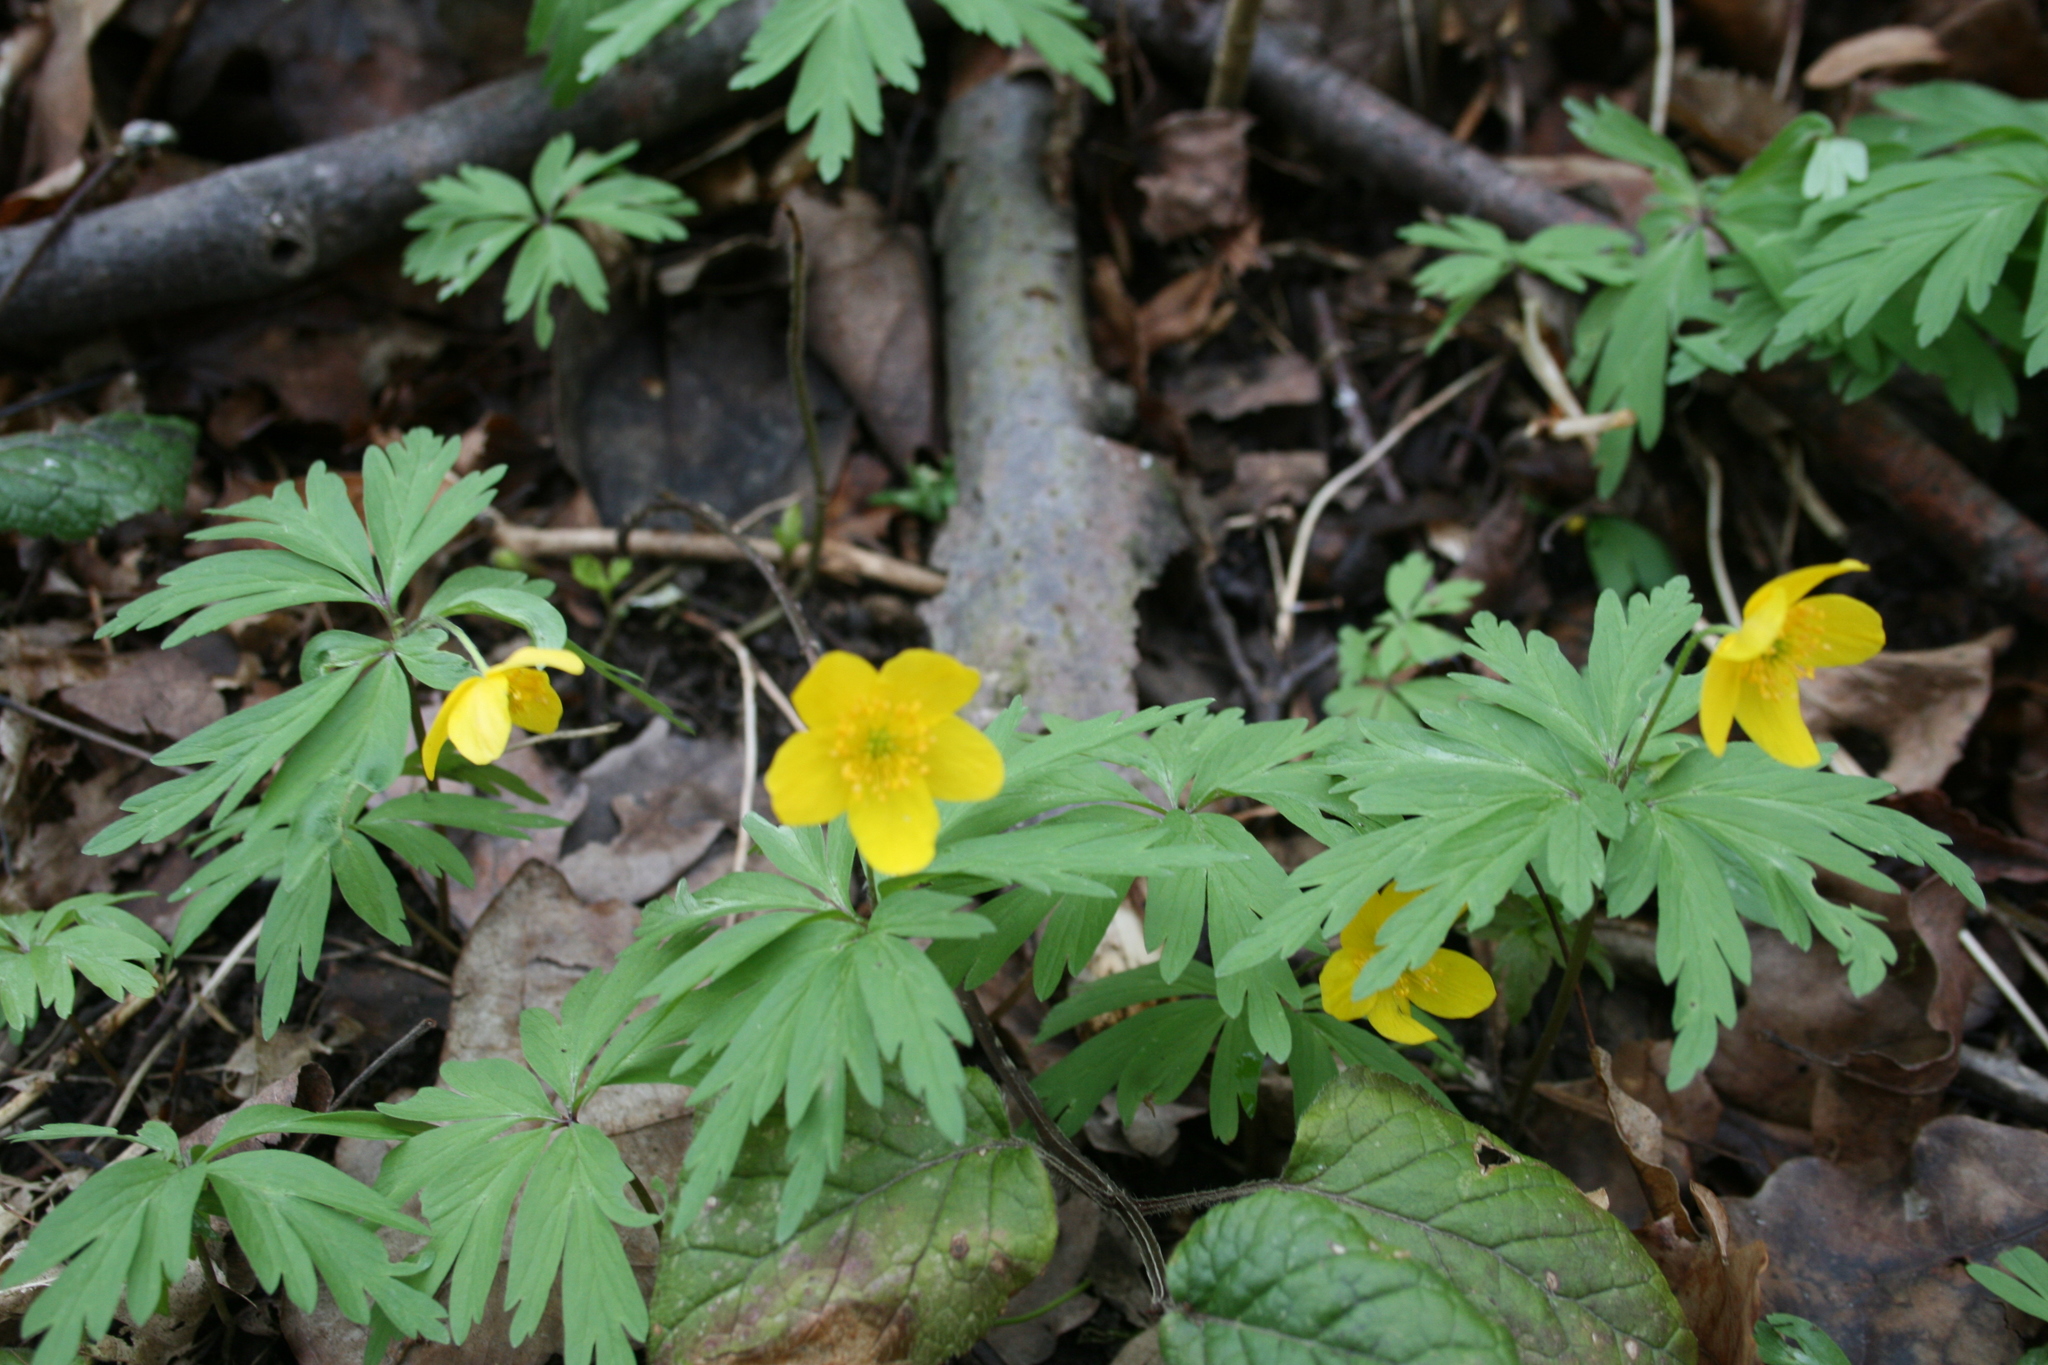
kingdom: Plantae
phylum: Tracheophyta
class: Magnoliopsida
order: Ranunculales
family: Ranunculaceae
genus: Anemone
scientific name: Anemone ranunculoides
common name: Yellow anemone
